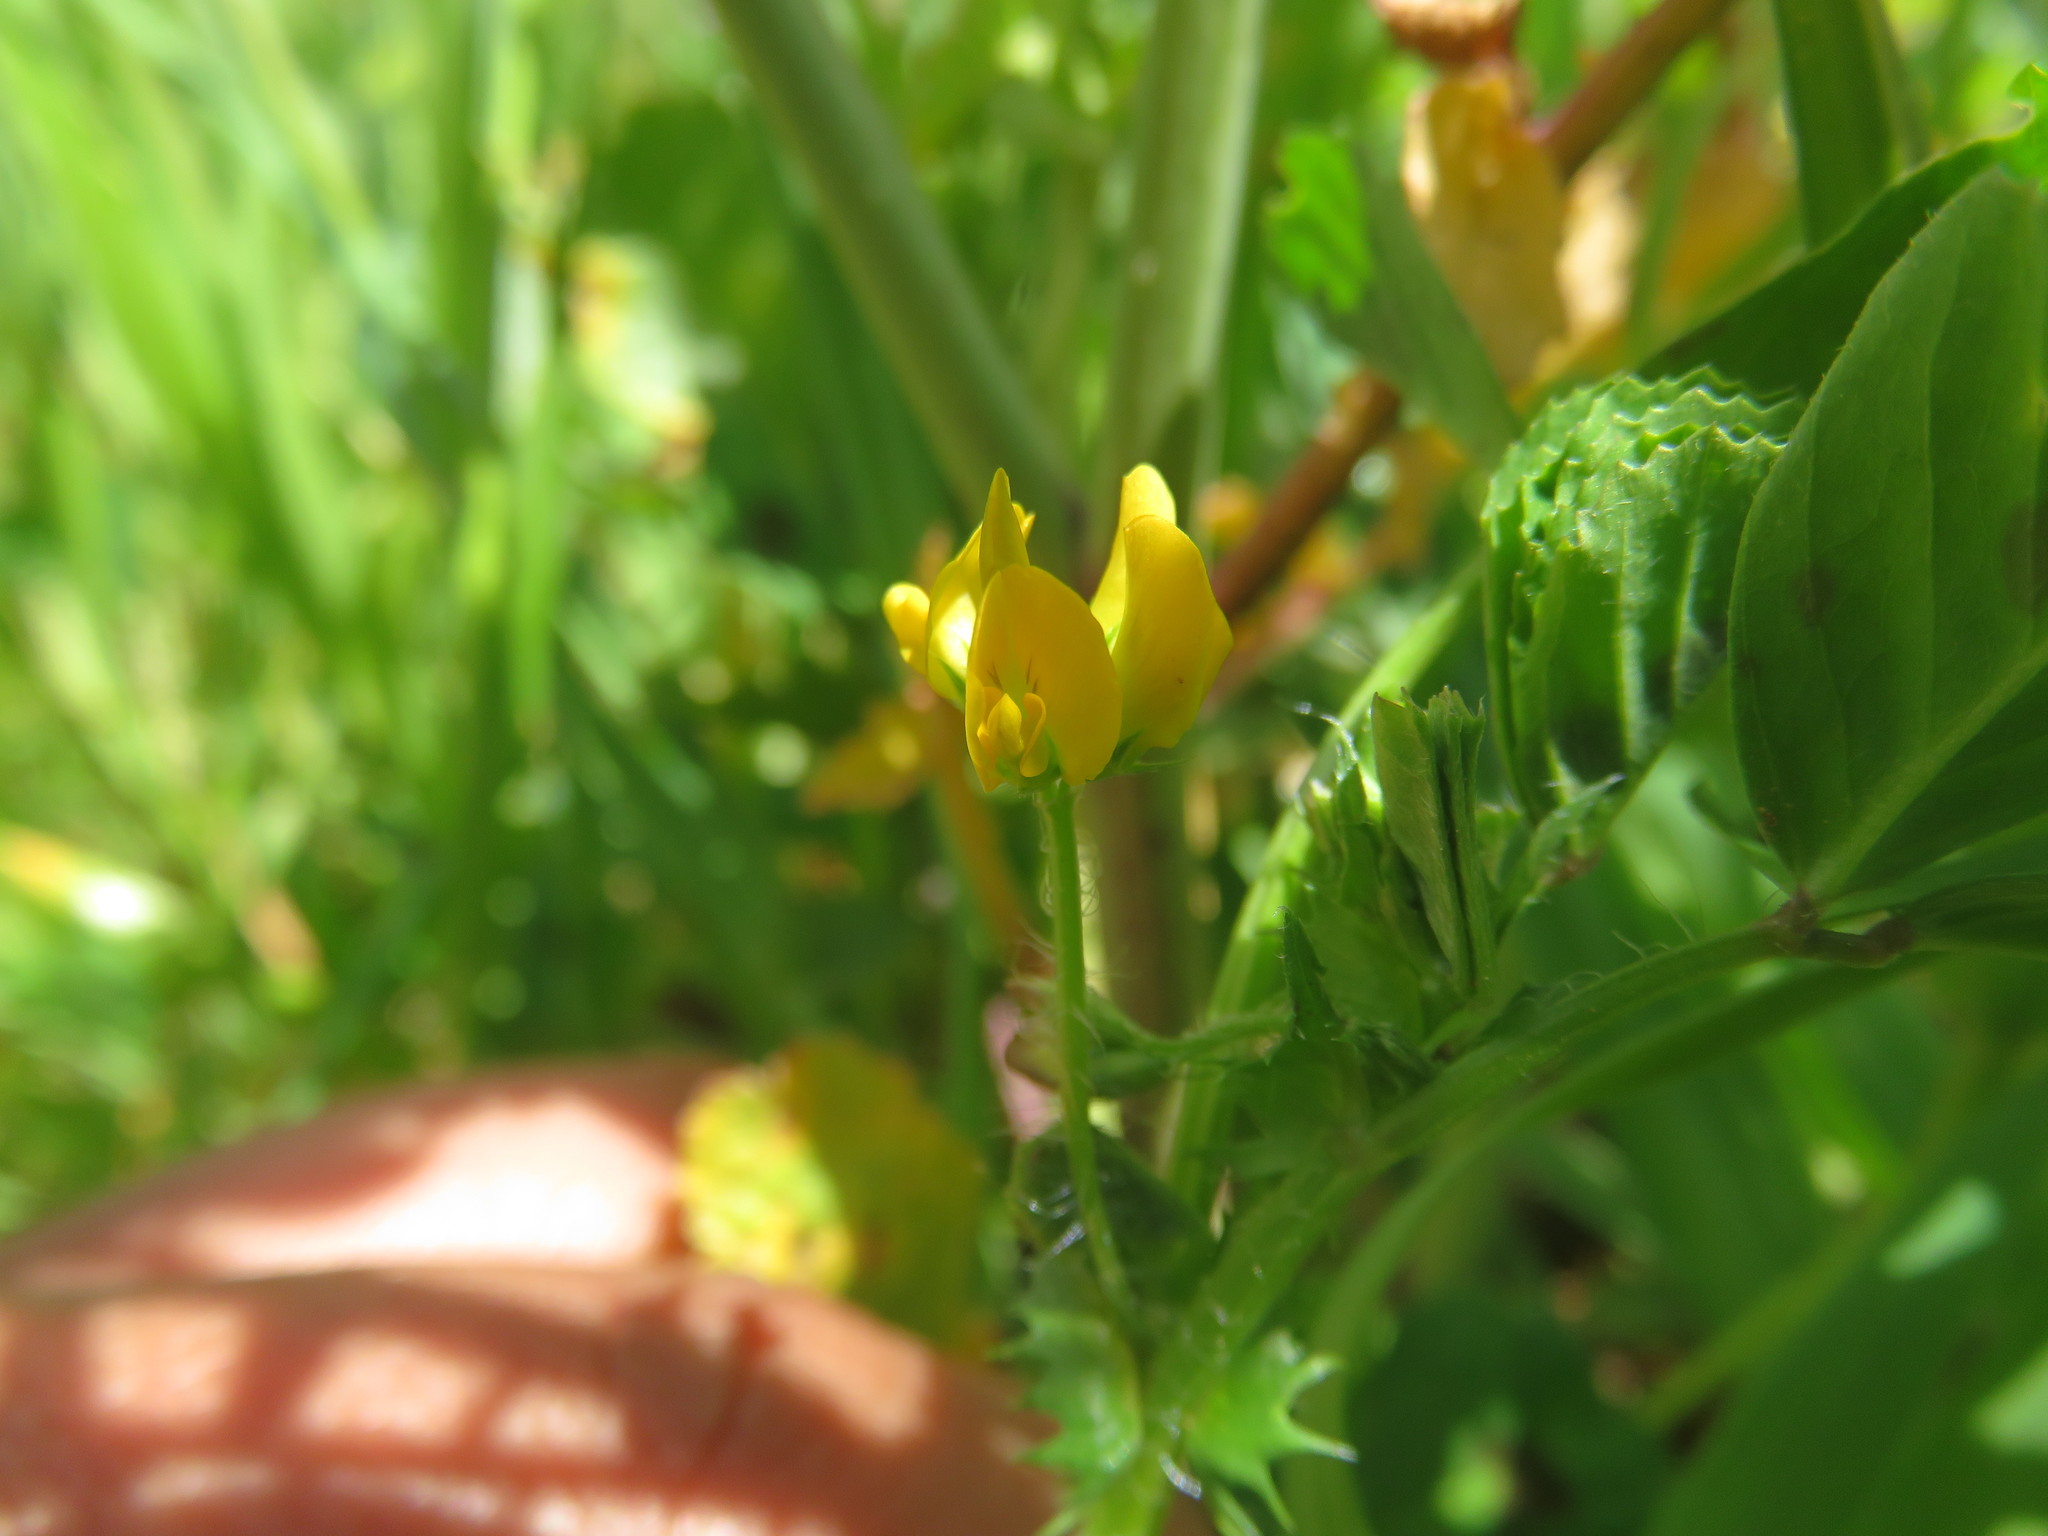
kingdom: Plantae
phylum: Tracheophyta
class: Magnoliopsida
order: Fabales
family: Fabaceae
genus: Medicago
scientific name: Medicago arabica
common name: Spotted medick
